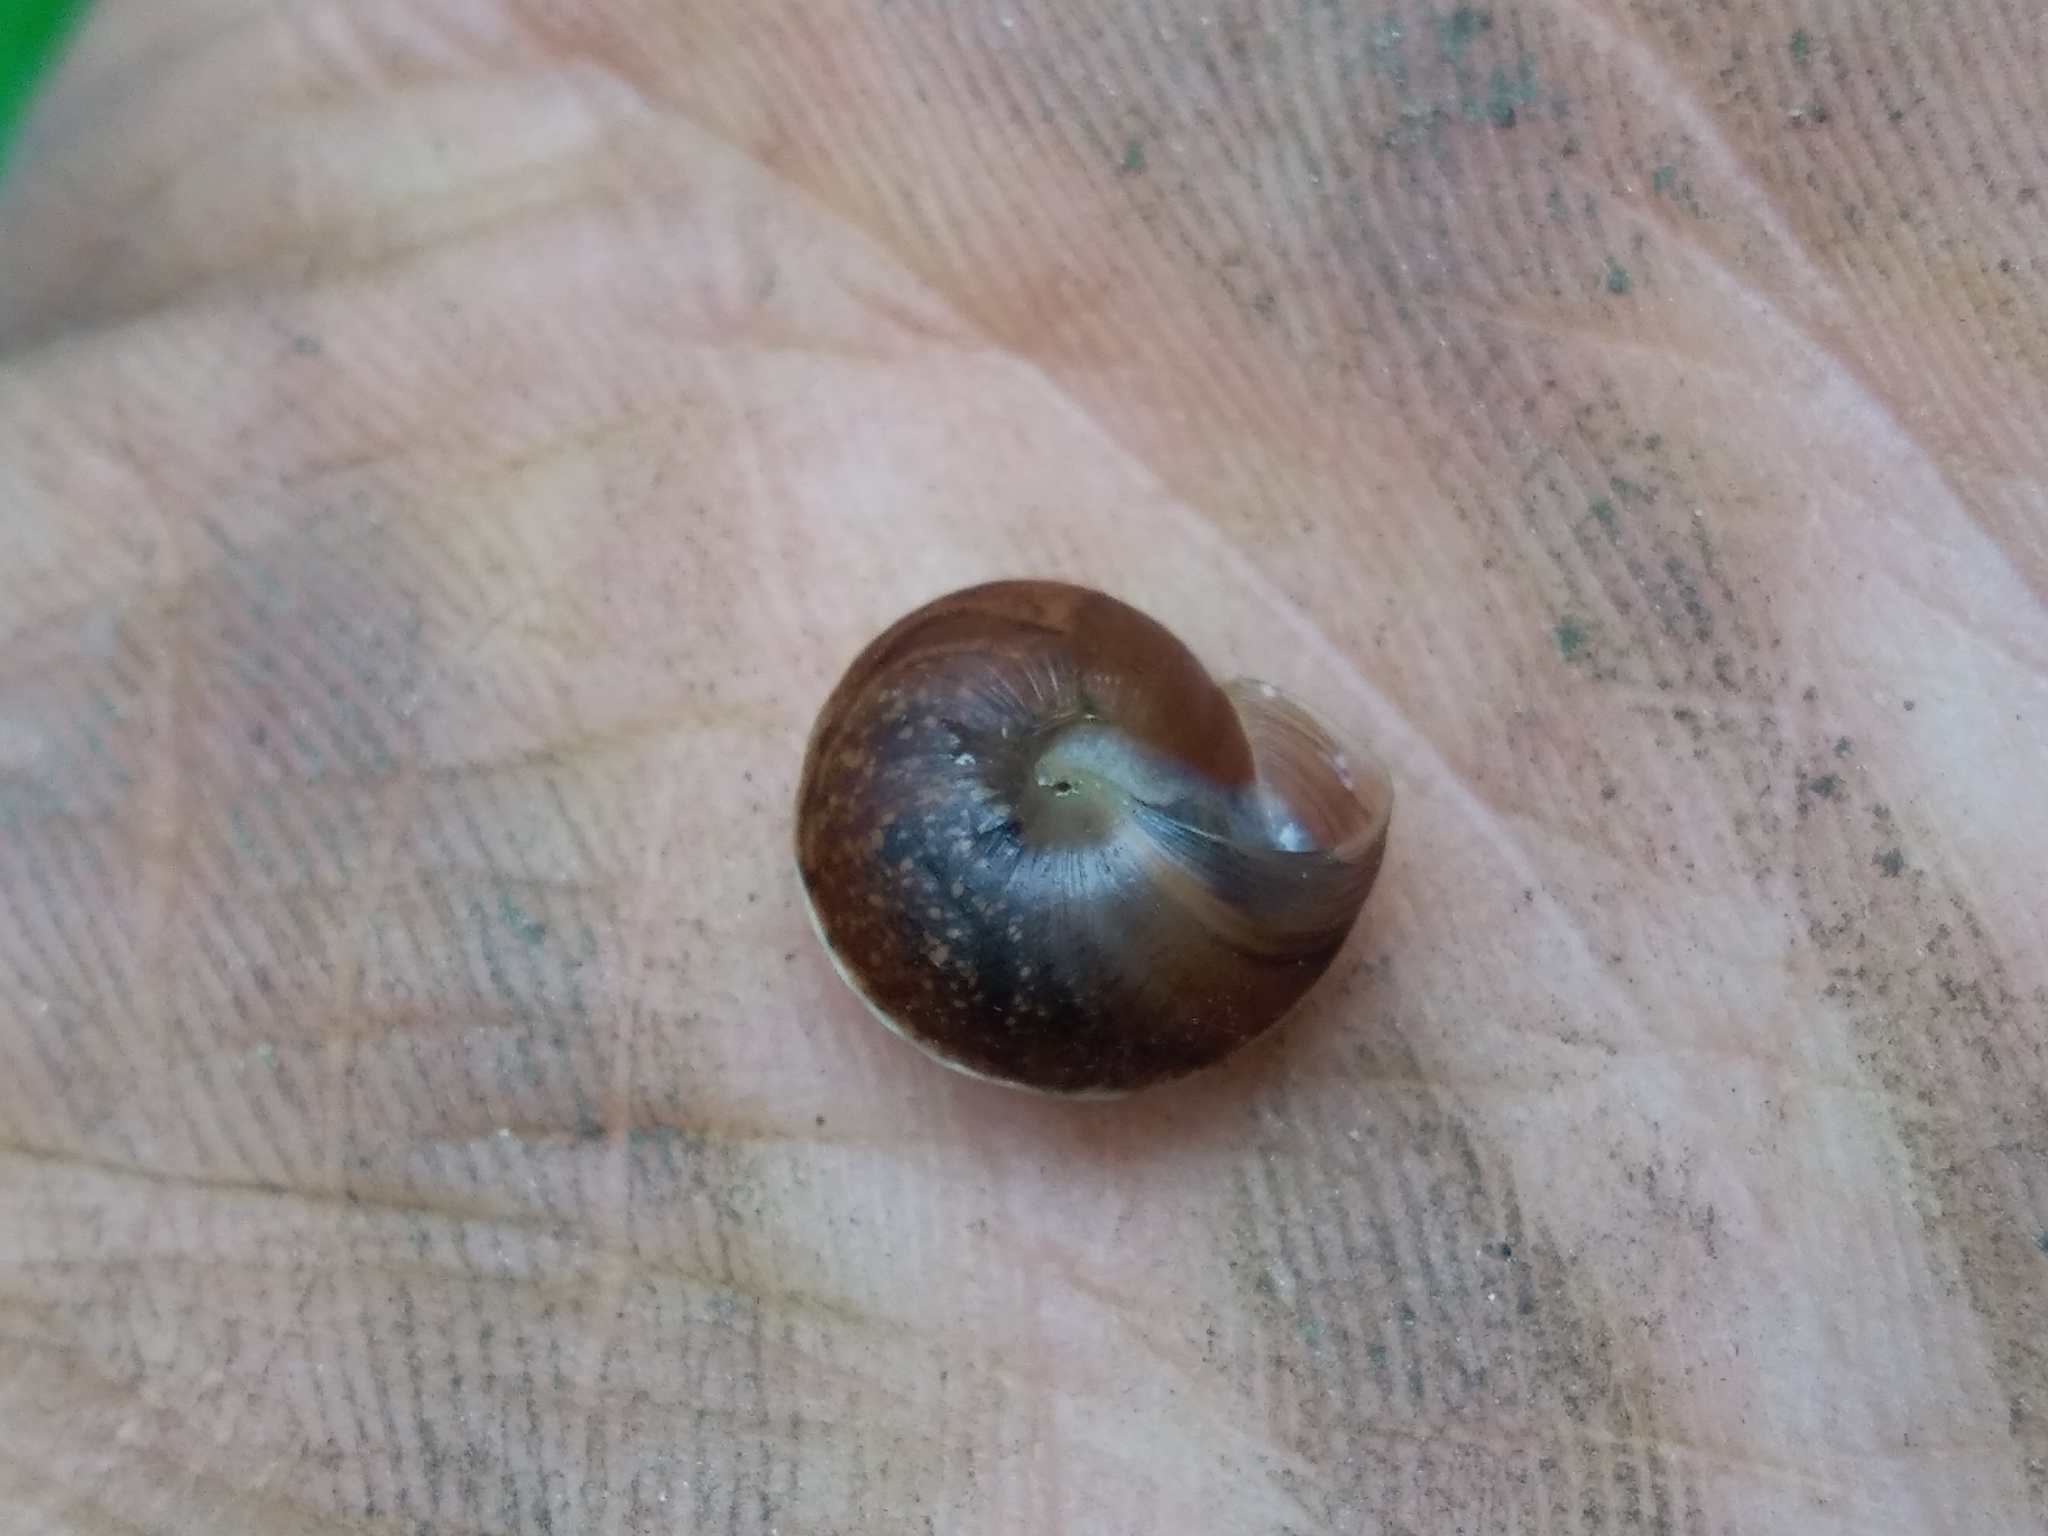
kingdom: Animalia
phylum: Mollusca
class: Gastropoda
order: Stylommatophora
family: Hygromiidae
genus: Hygromia
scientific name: Hygromia cinctella
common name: Girdled snail
